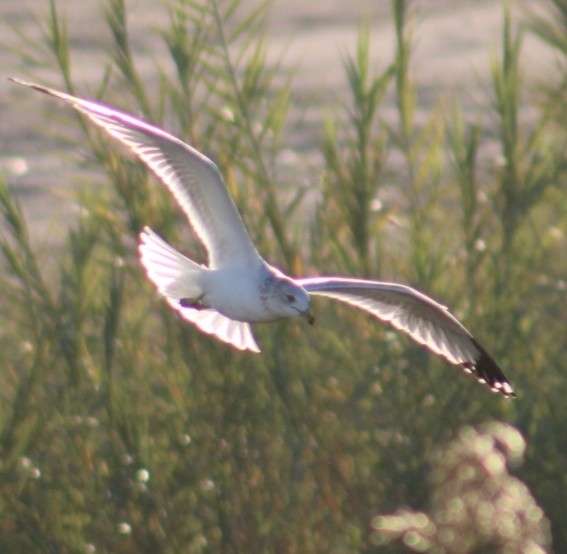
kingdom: Animalia
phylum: Chordata
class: Aves
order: Charadriiformes
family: Laridae
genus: Larus
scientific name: Larus delawarensis
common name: Ring-billed gull
